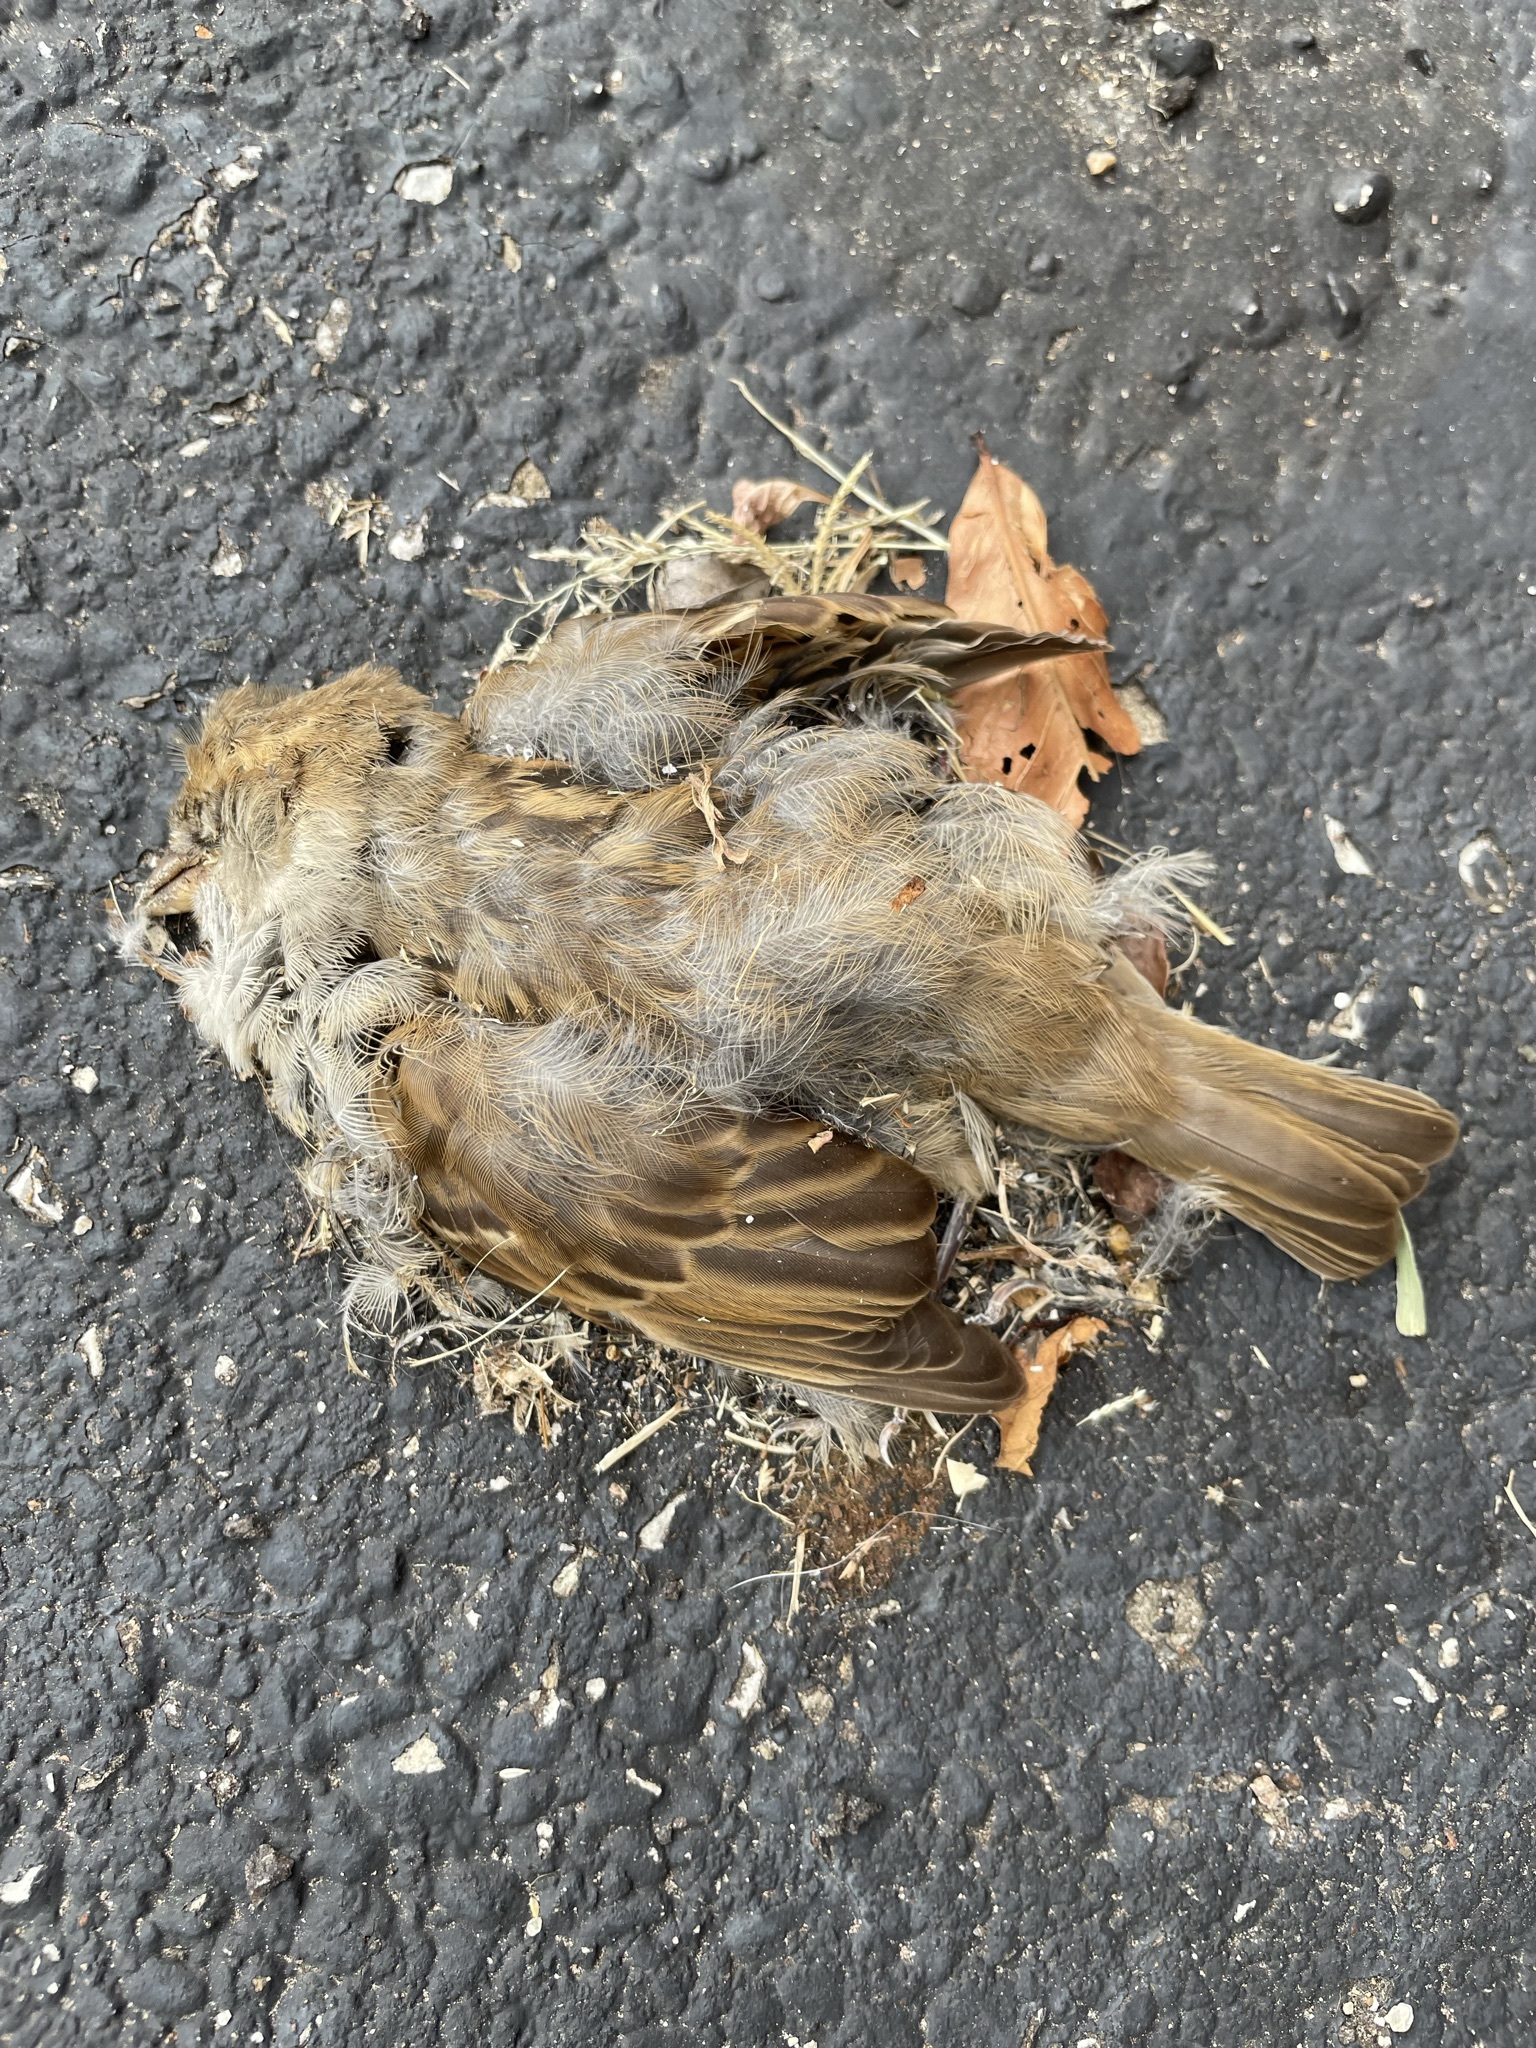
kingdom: Animalia
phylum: Chordata
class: Aves
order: Passeriformes
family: Passeridae
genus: Passer
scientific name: Passer domesticus
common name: House sparrow
